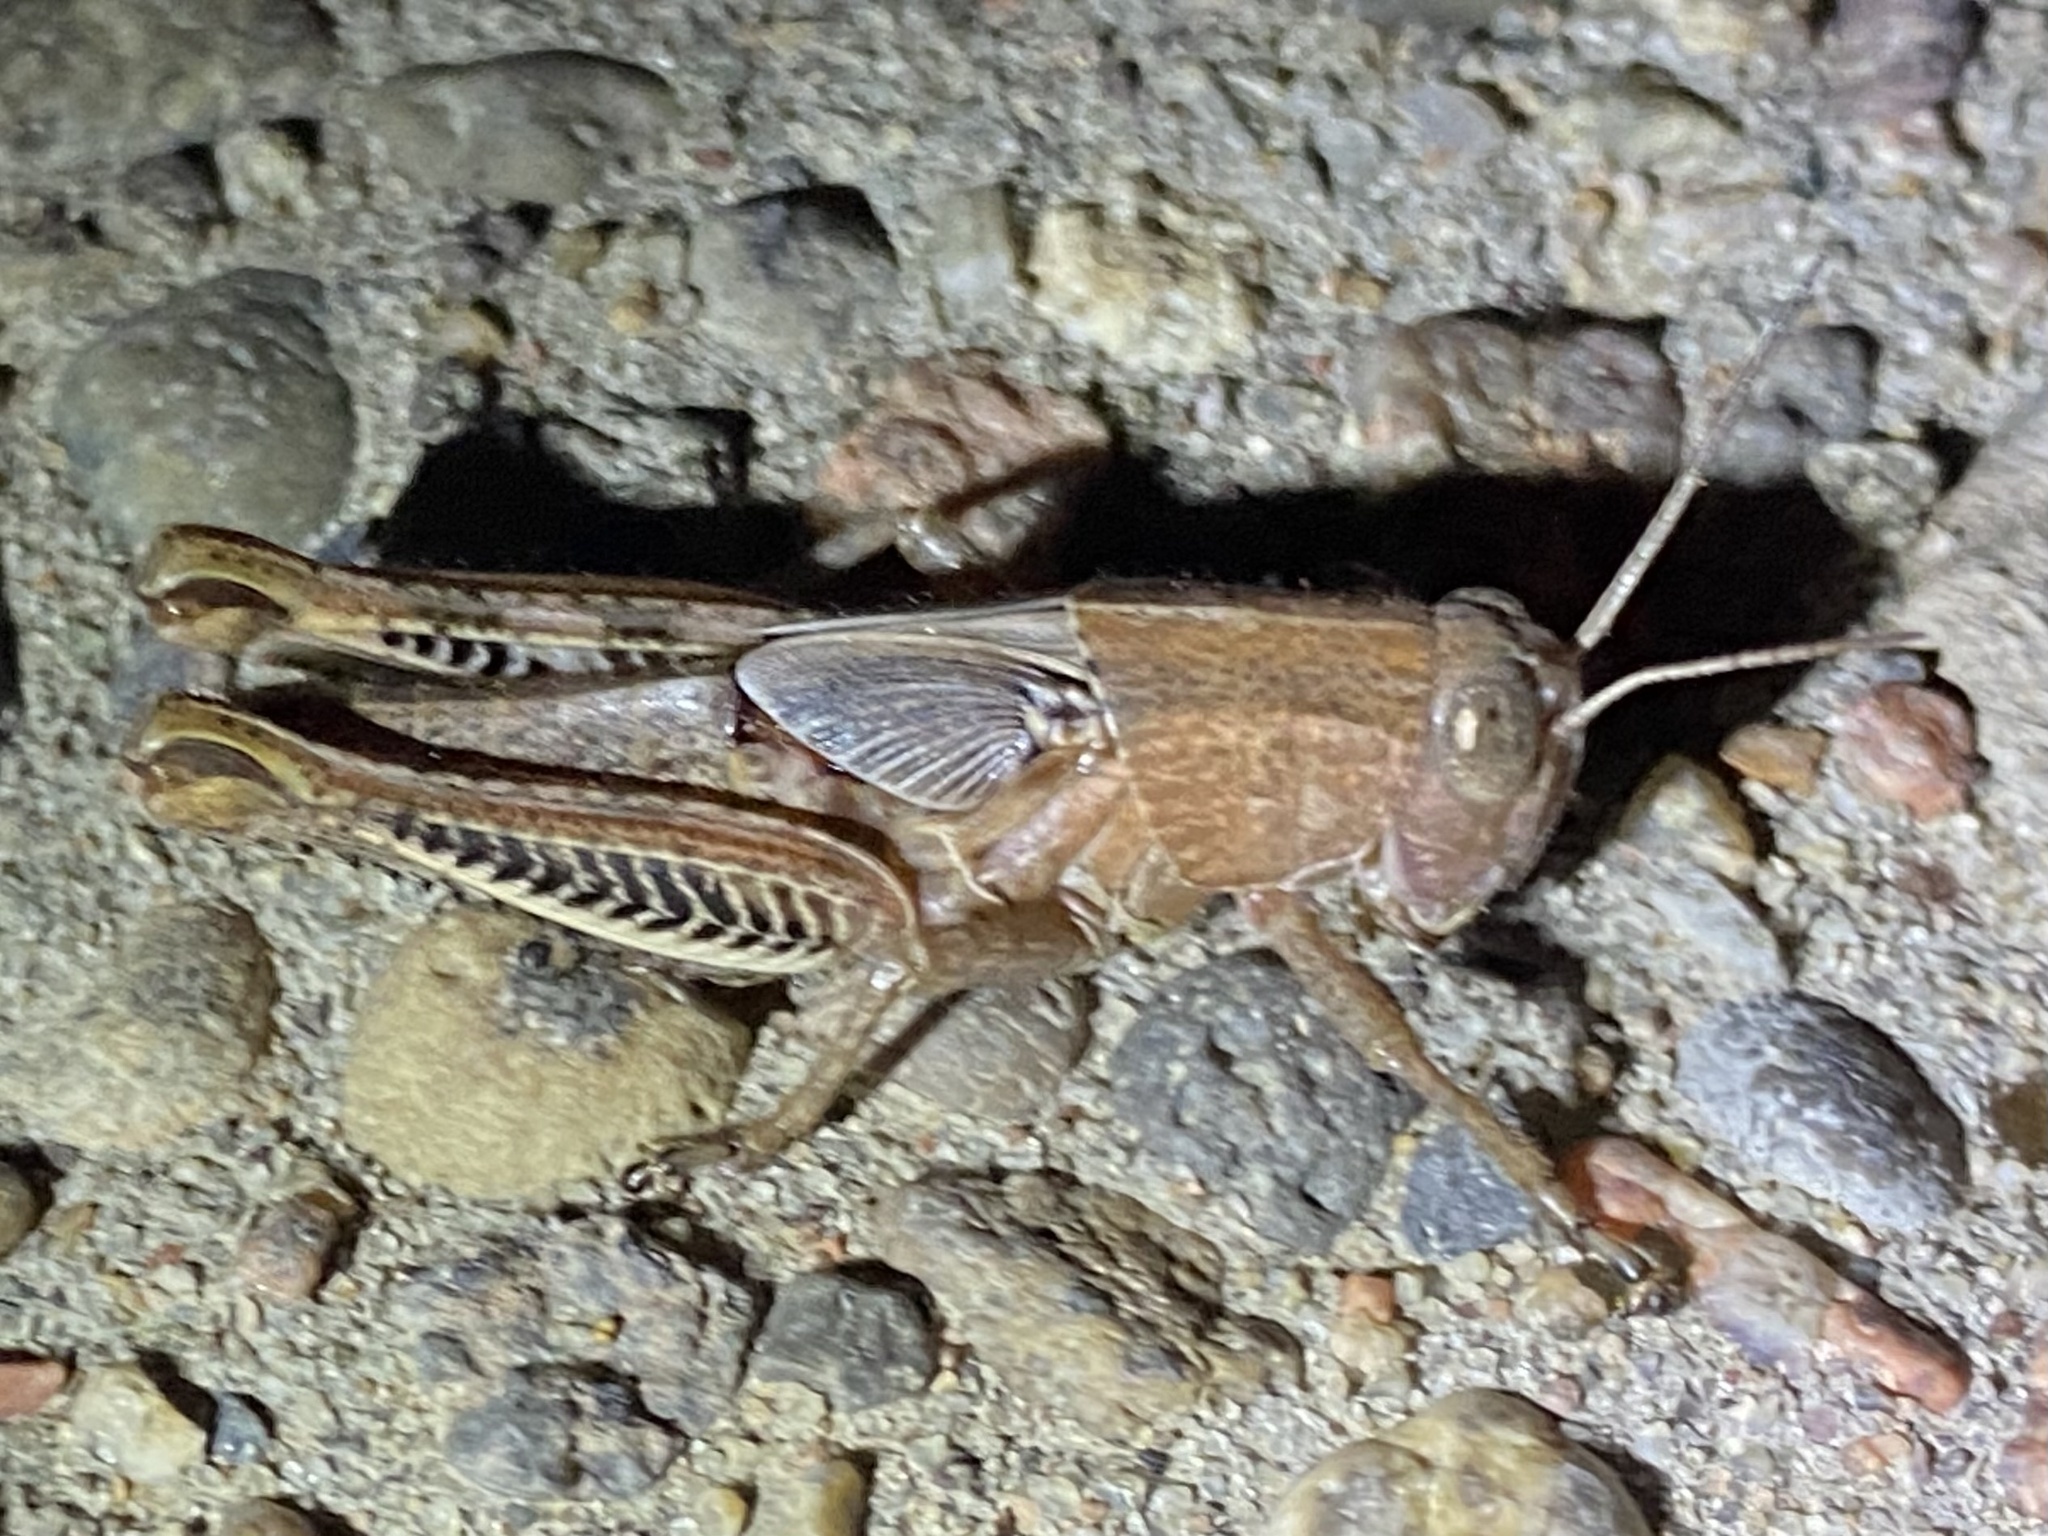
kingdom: Animalia
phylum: Arthropoda
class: Insecta
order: Orthoptera
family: Acrididae
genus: Melanoplus
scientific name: Melanoplus differentialis
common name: Differential grasshopper
